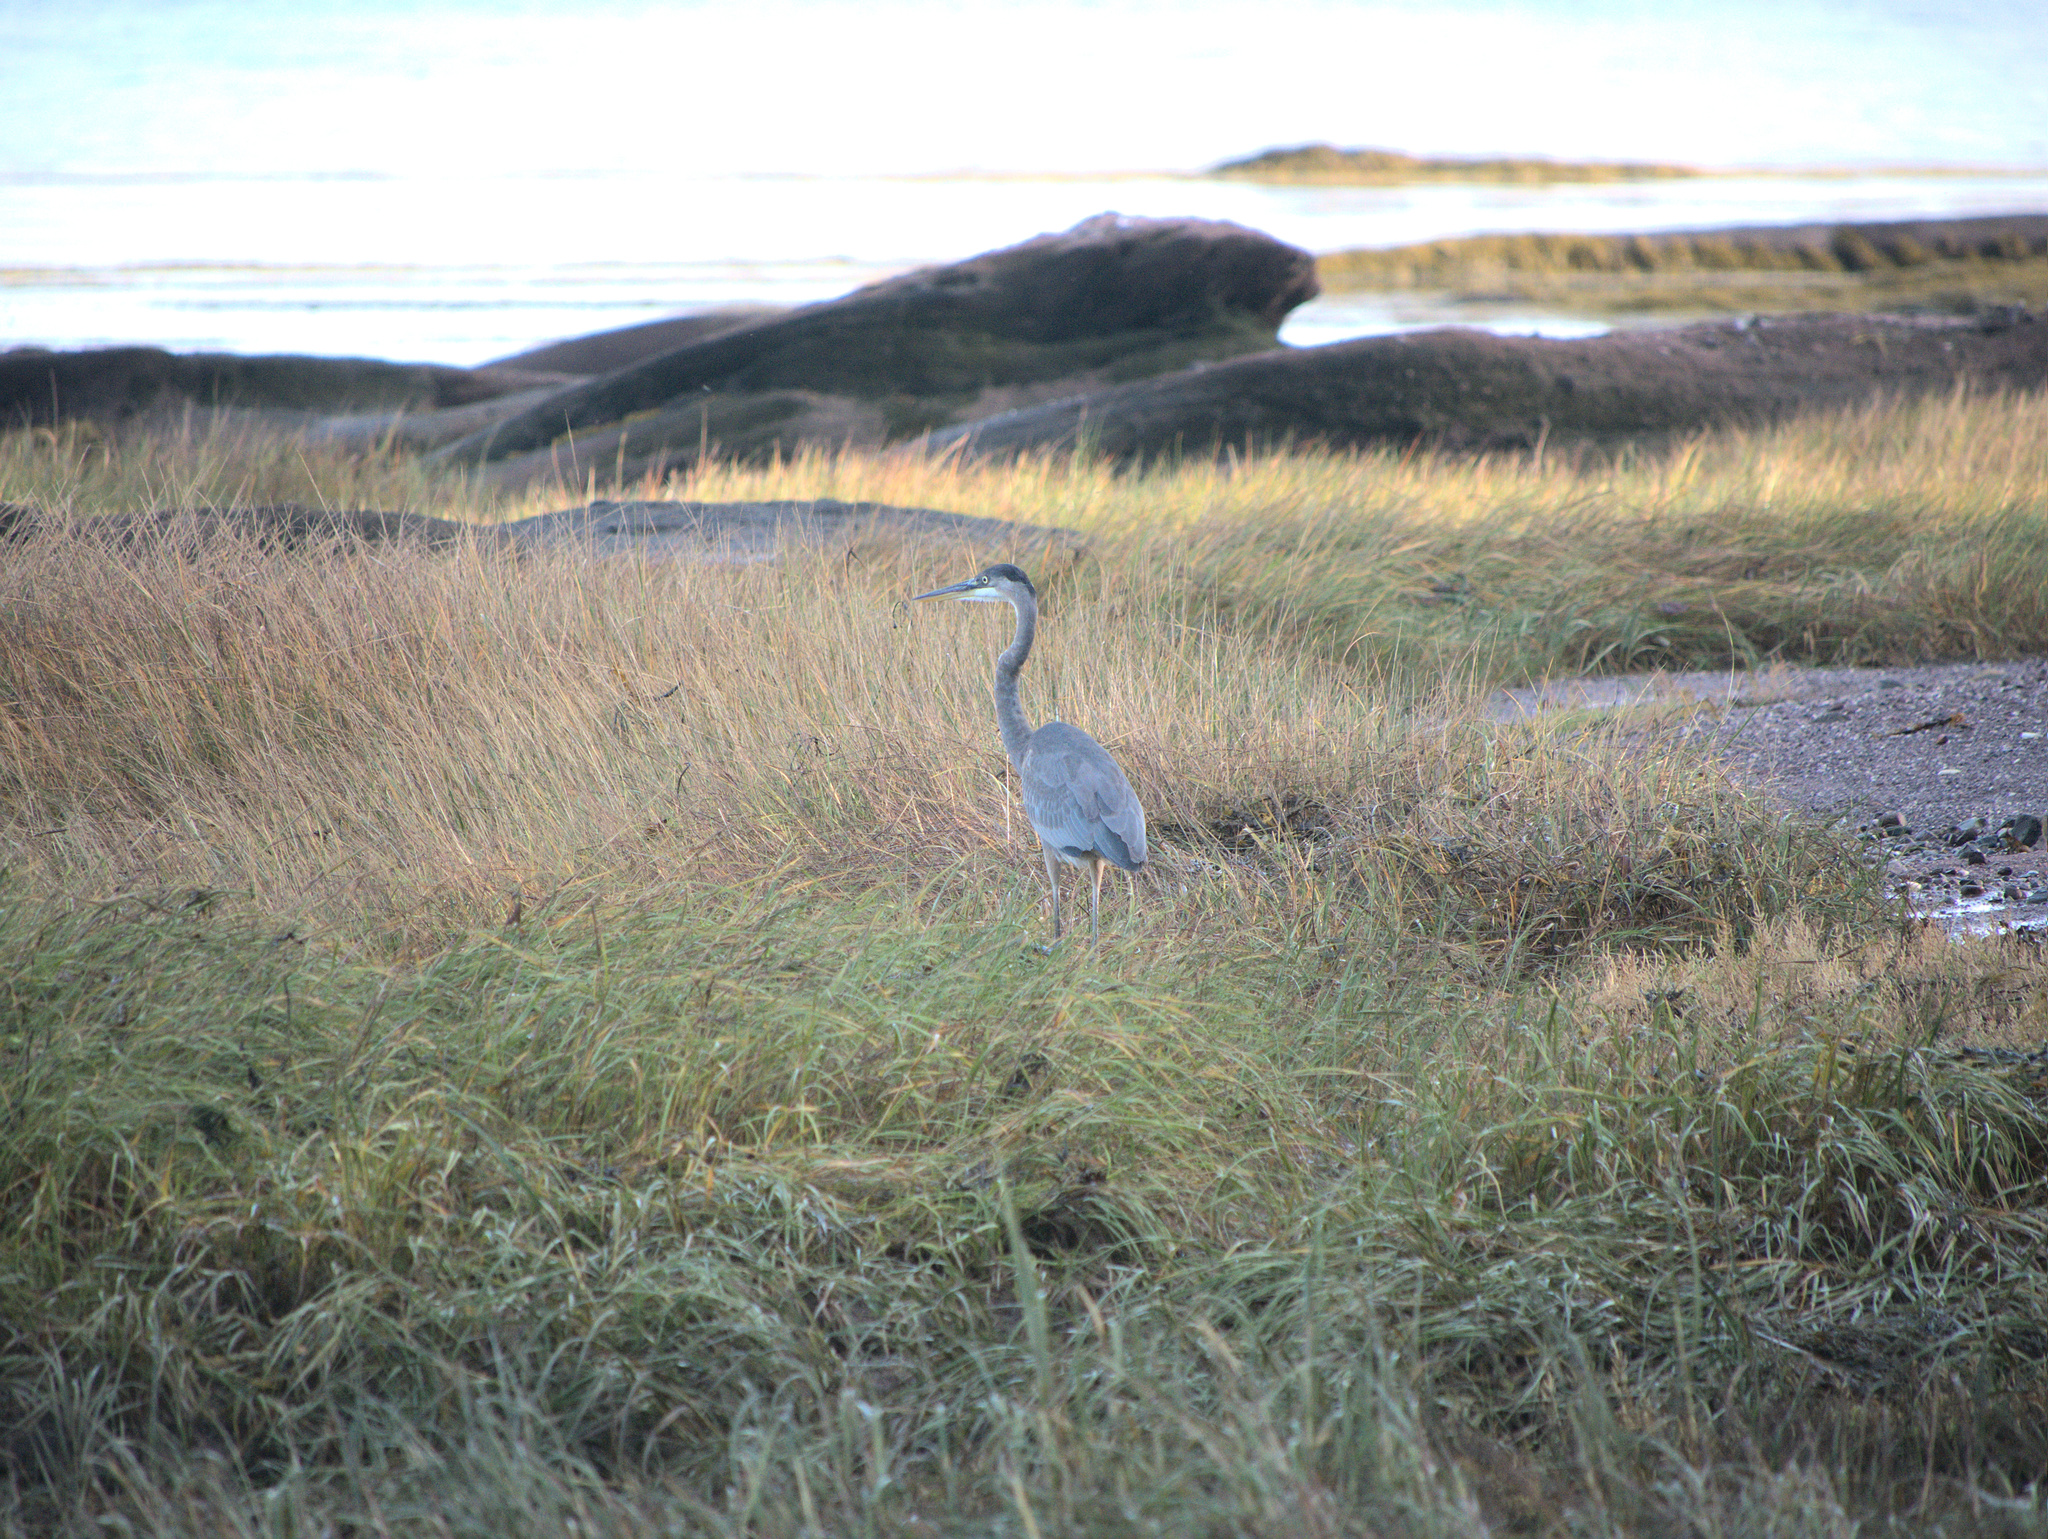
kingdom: Animalia
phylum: Chordata
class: Aves
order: Pelecaniformes
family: Ardeidae
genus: Ardea
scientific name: Ardea herodias
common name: Great blue heron
